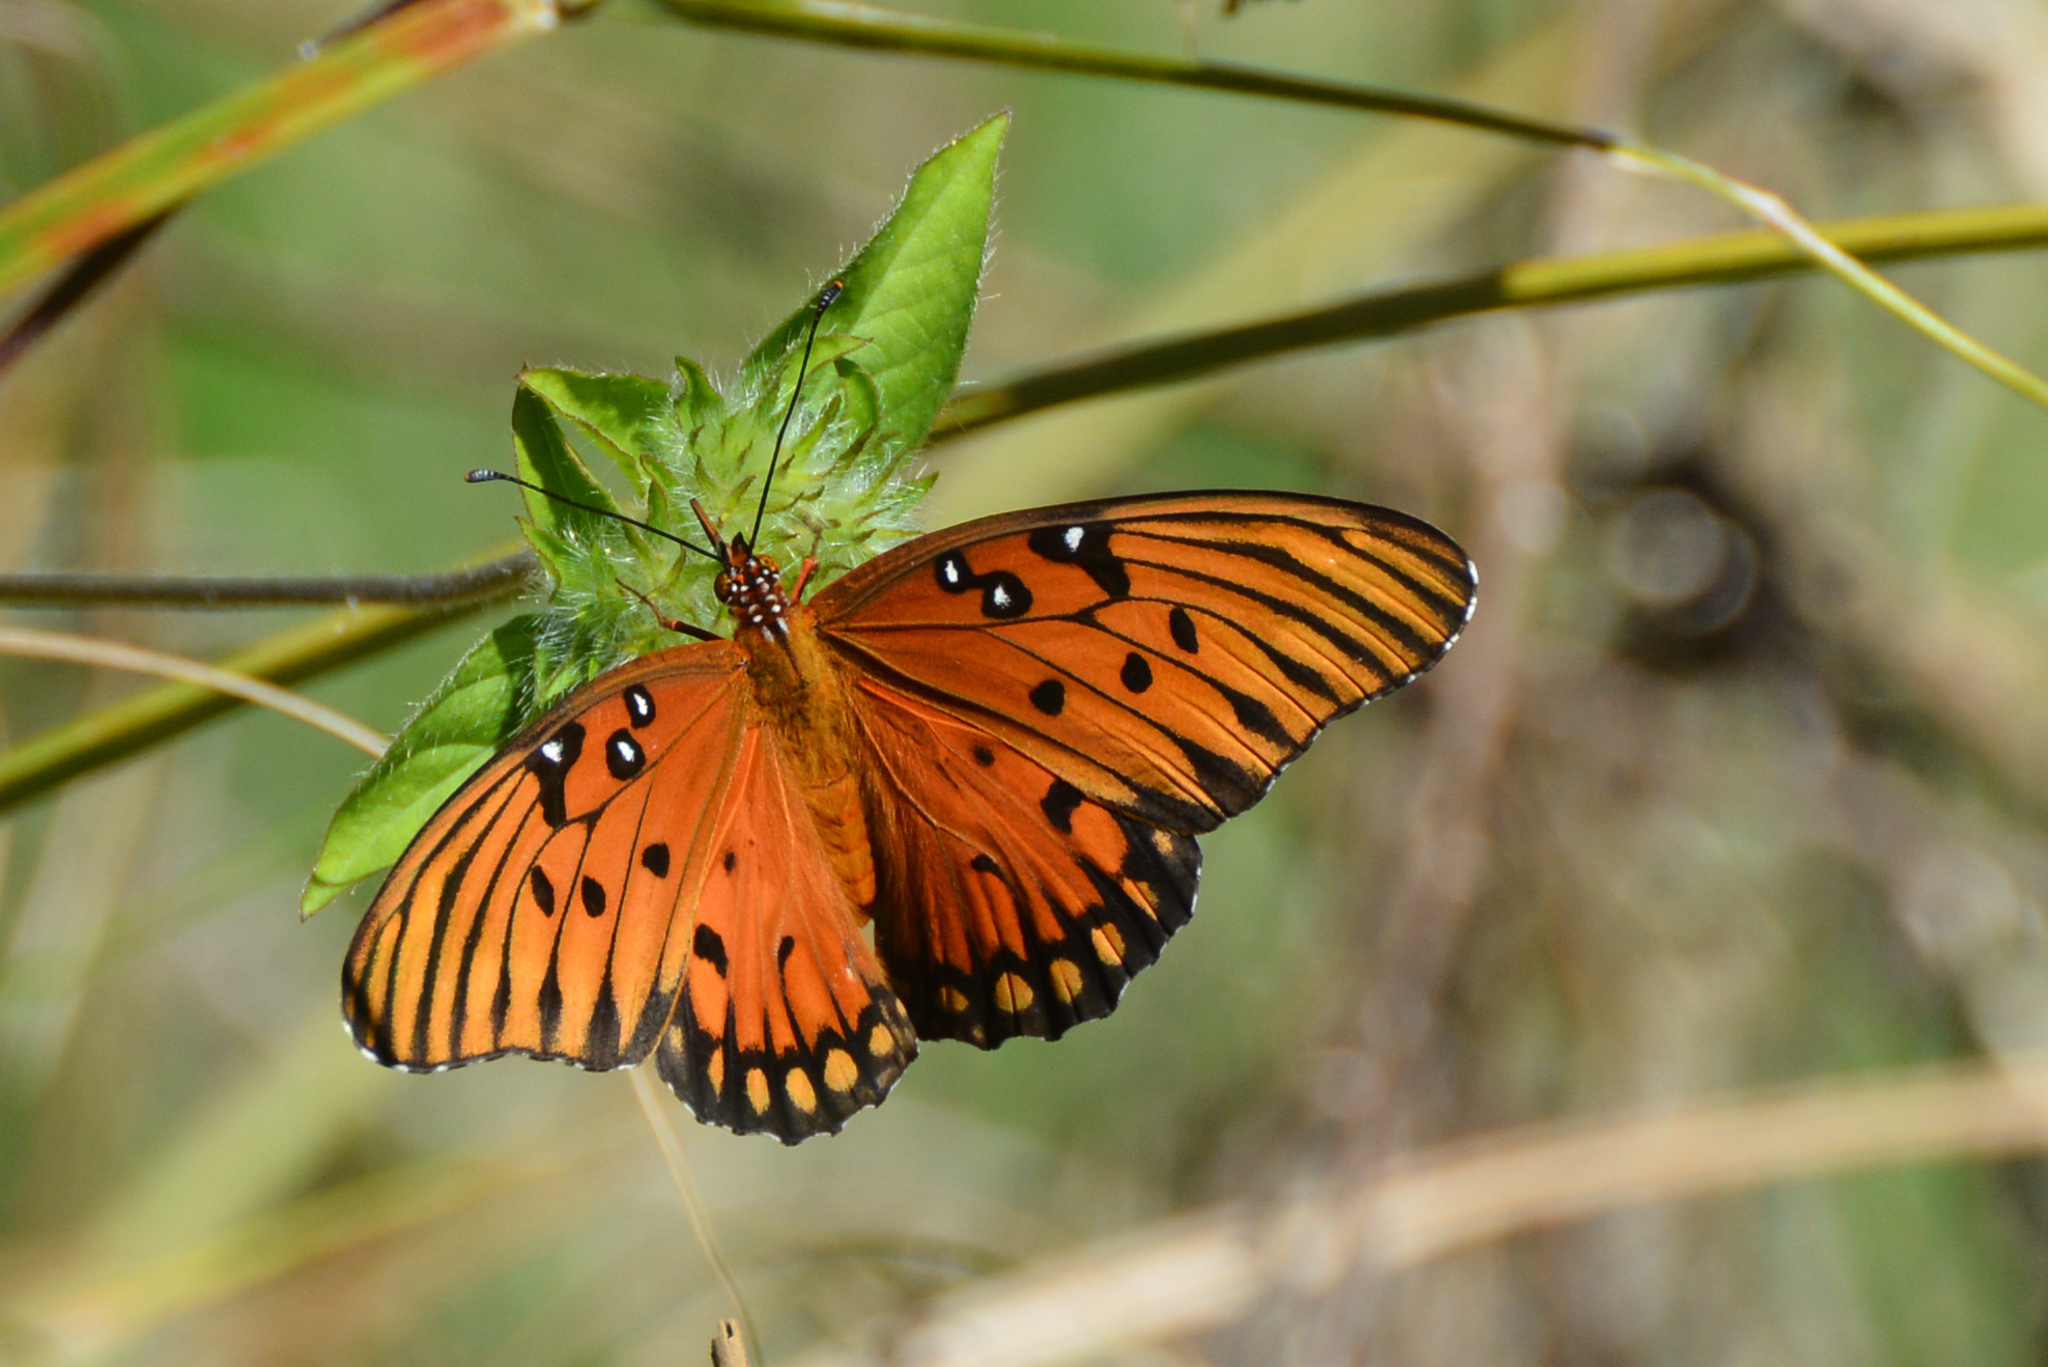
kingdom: Animalia
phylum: Arthropoda
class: Insecta
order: Lepidoptera
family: Nymphalidae
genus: Dione
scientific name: Dione vanillae
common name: Gulf fritillary
